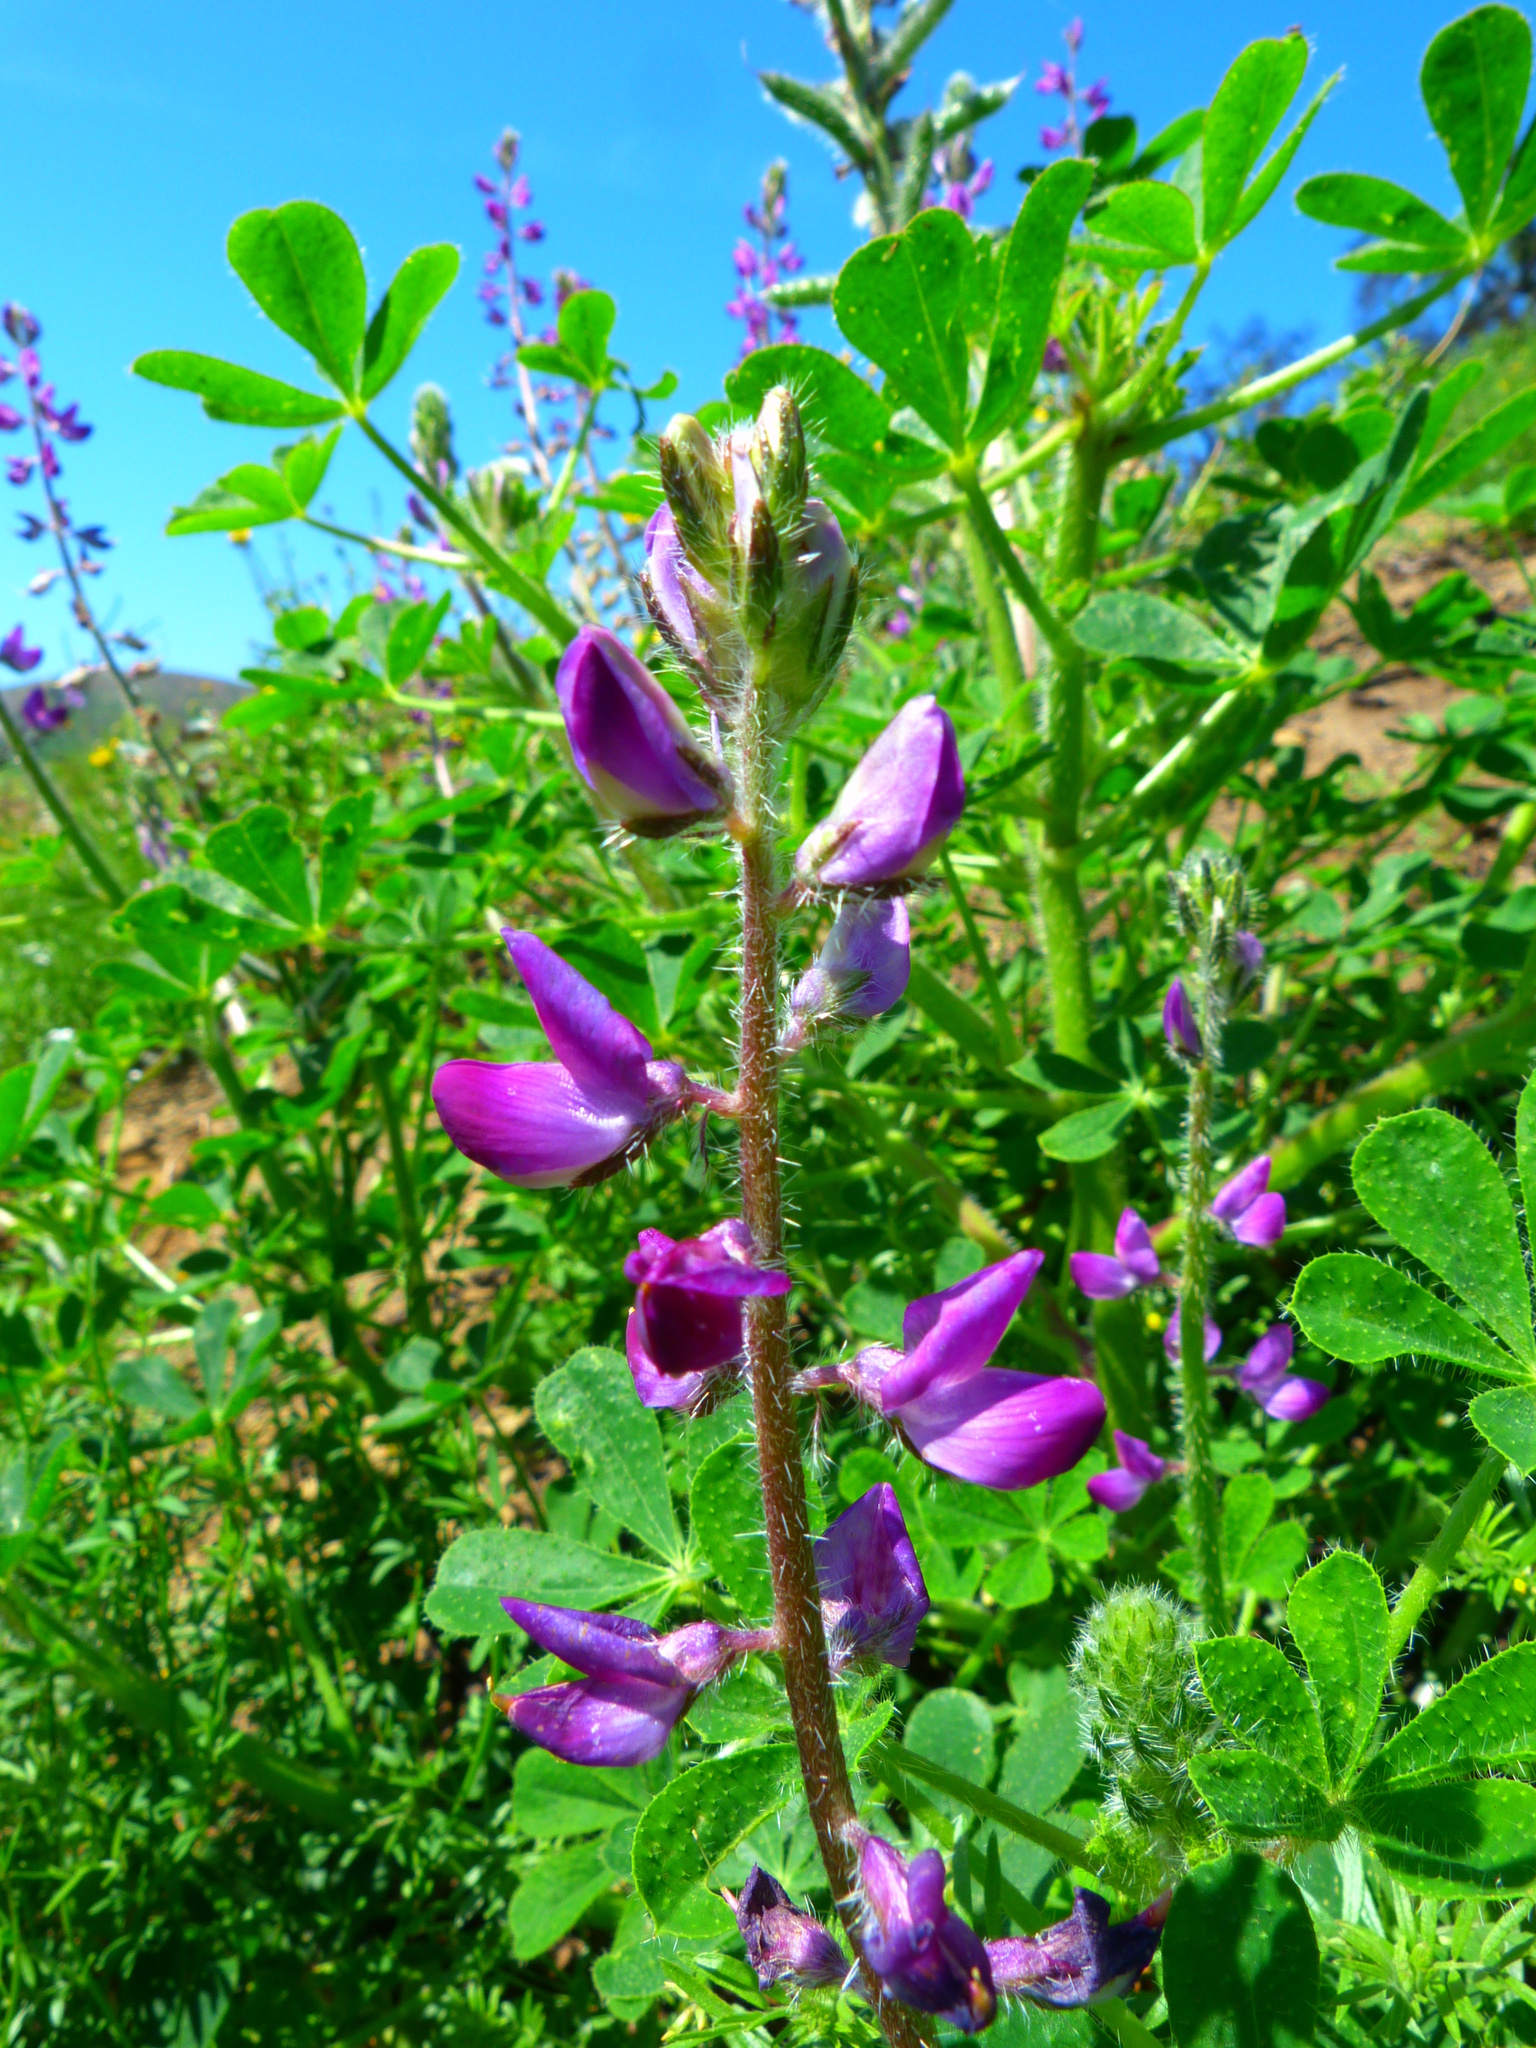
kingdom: Plantae
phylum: Tracheophyta
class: Magnoliopsida
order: Fabales
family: Fabaceae
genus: Lupinus
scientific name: Lupinus hirsutissimus
